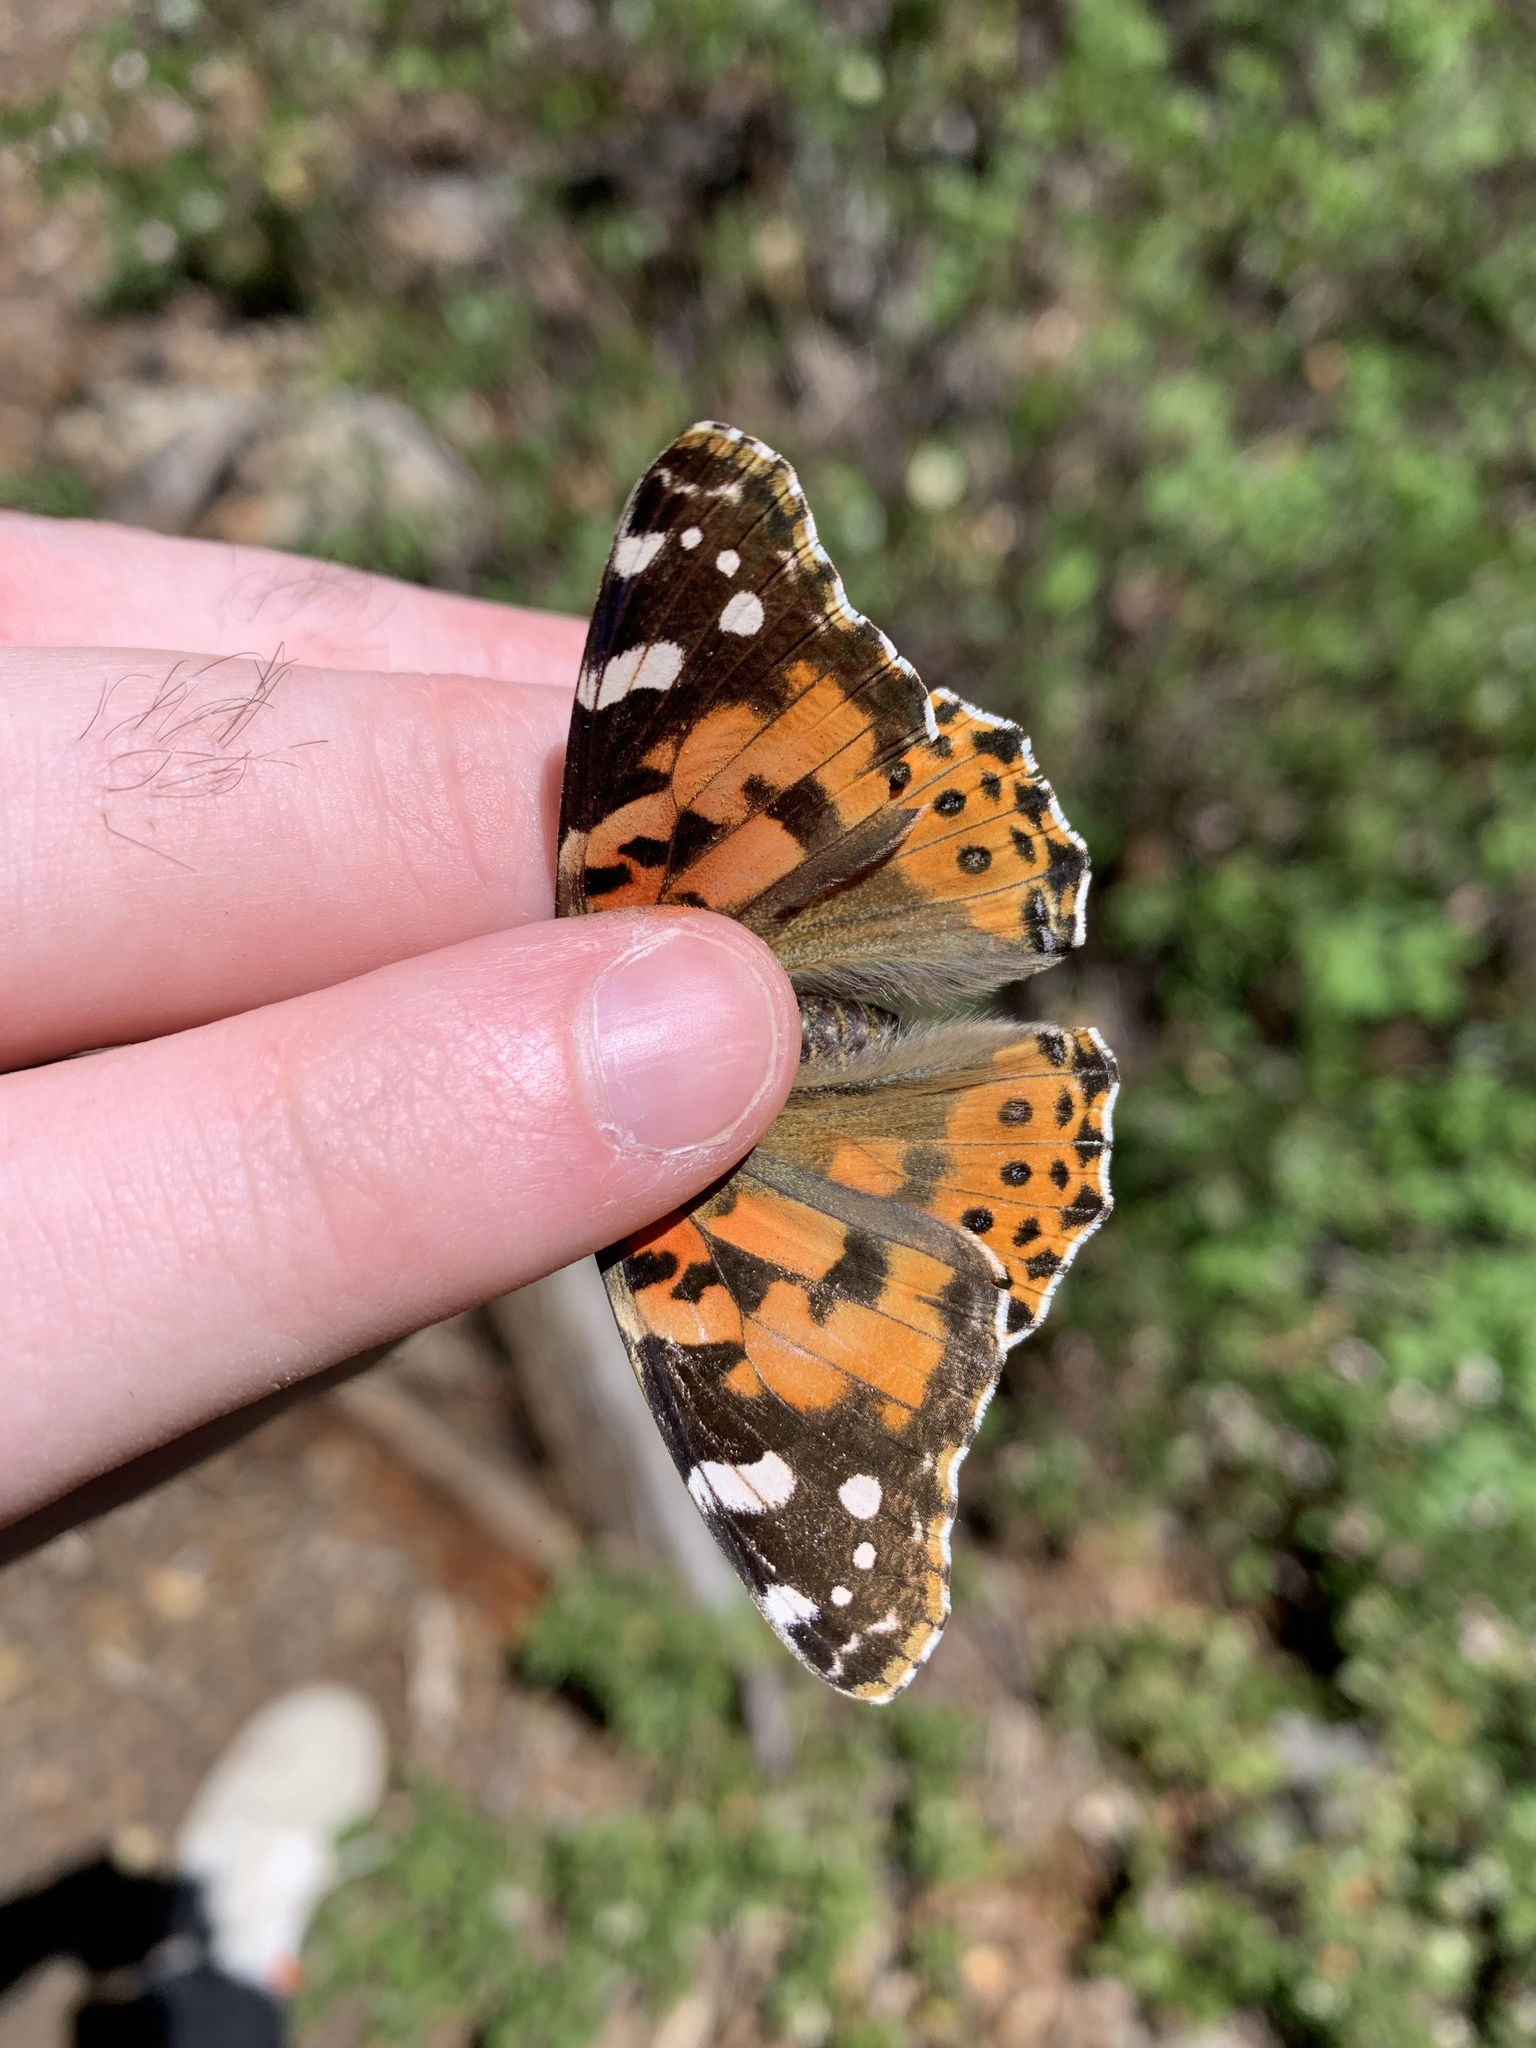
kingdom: Animalia
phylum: Arthropoda
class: Insecta
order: Lepidoptera
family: Nymphalidae
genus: Vanessa
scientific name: Vanessa cardui
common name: Painted lady
